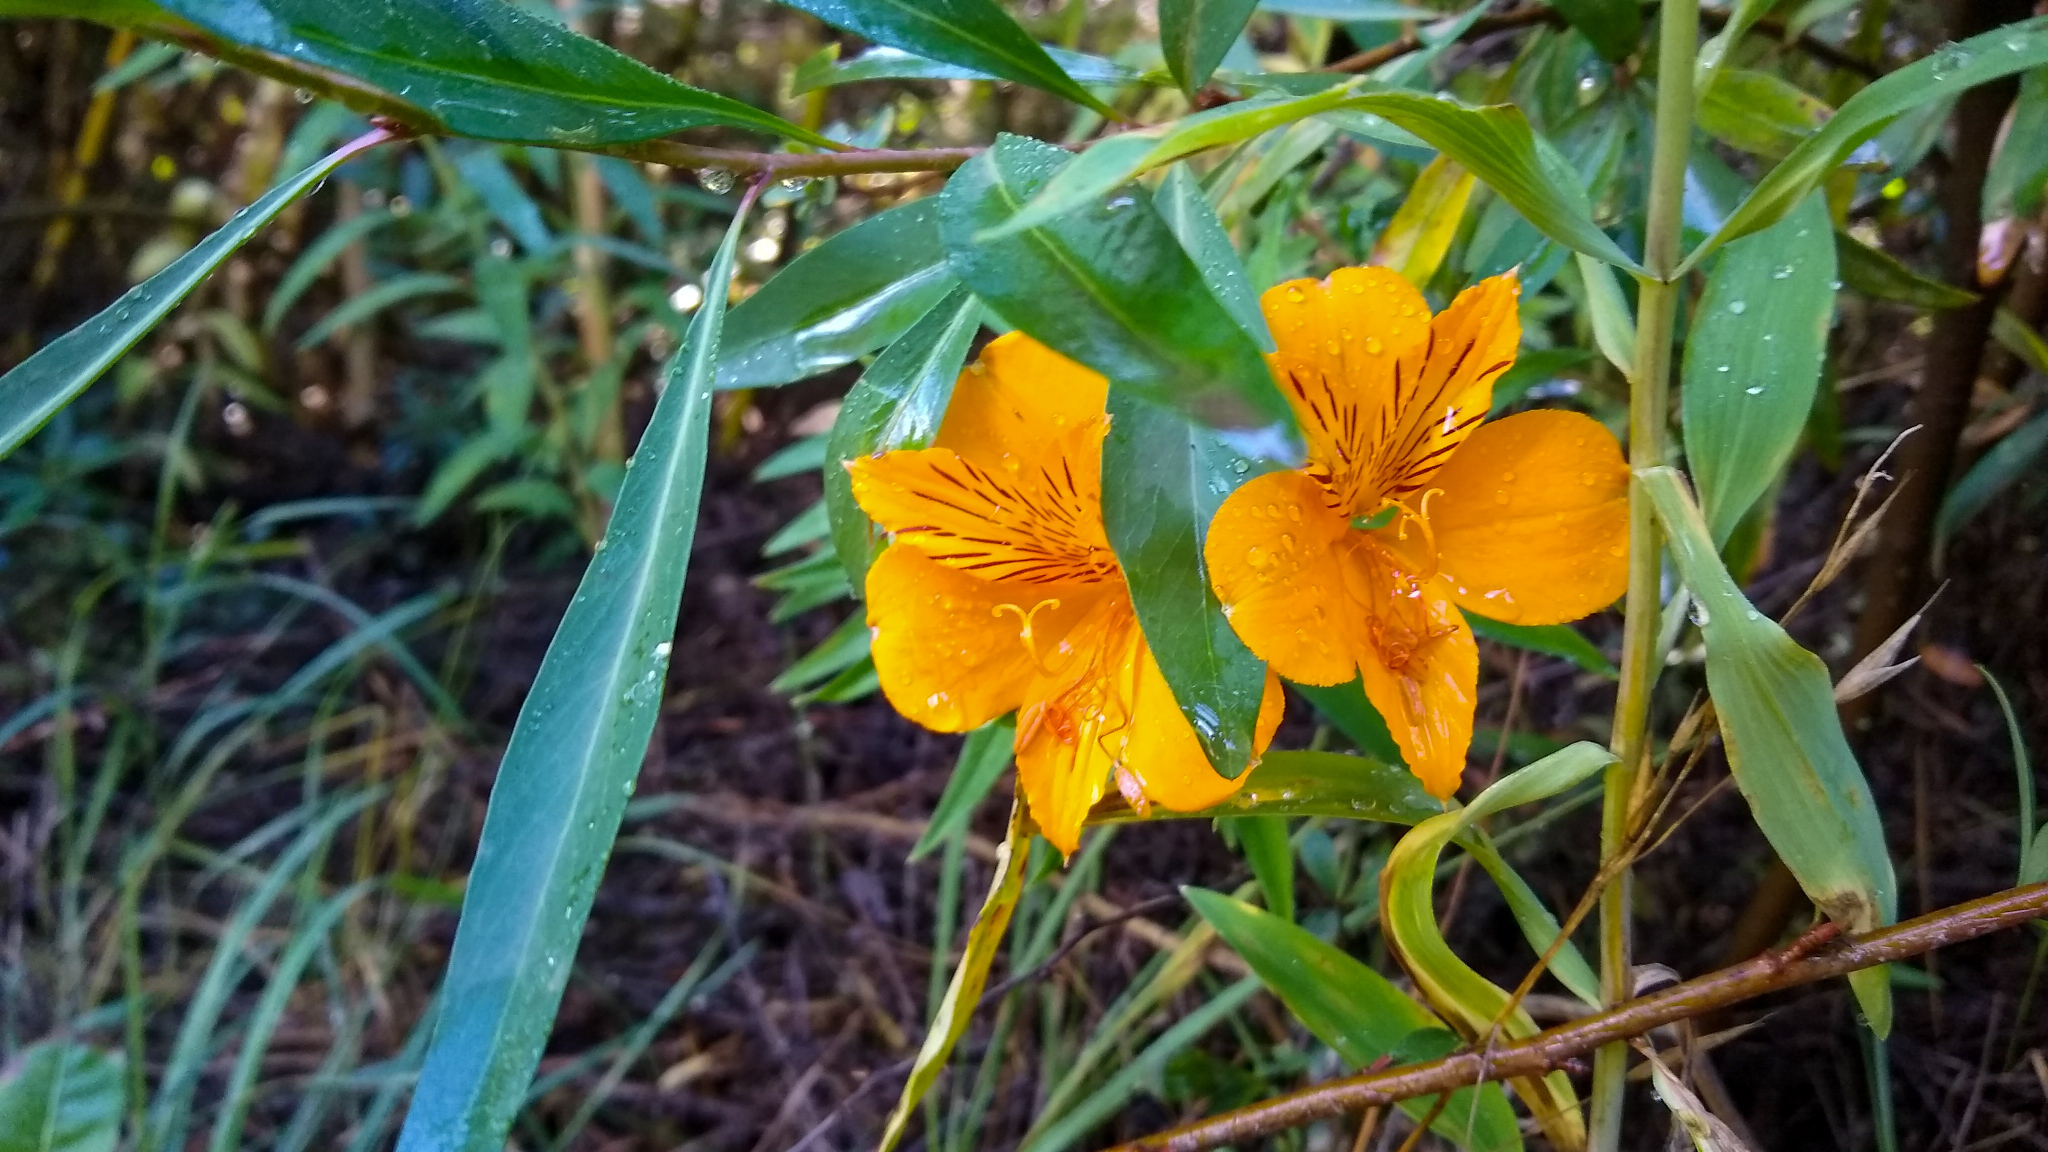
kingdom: Plantae
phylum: Tracheophyta
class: Liliopsida
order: Liliales
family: Alstroemeriaceae
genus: Alstroemeria
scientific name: Alstroemeria aurea
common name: Peruvian lily
